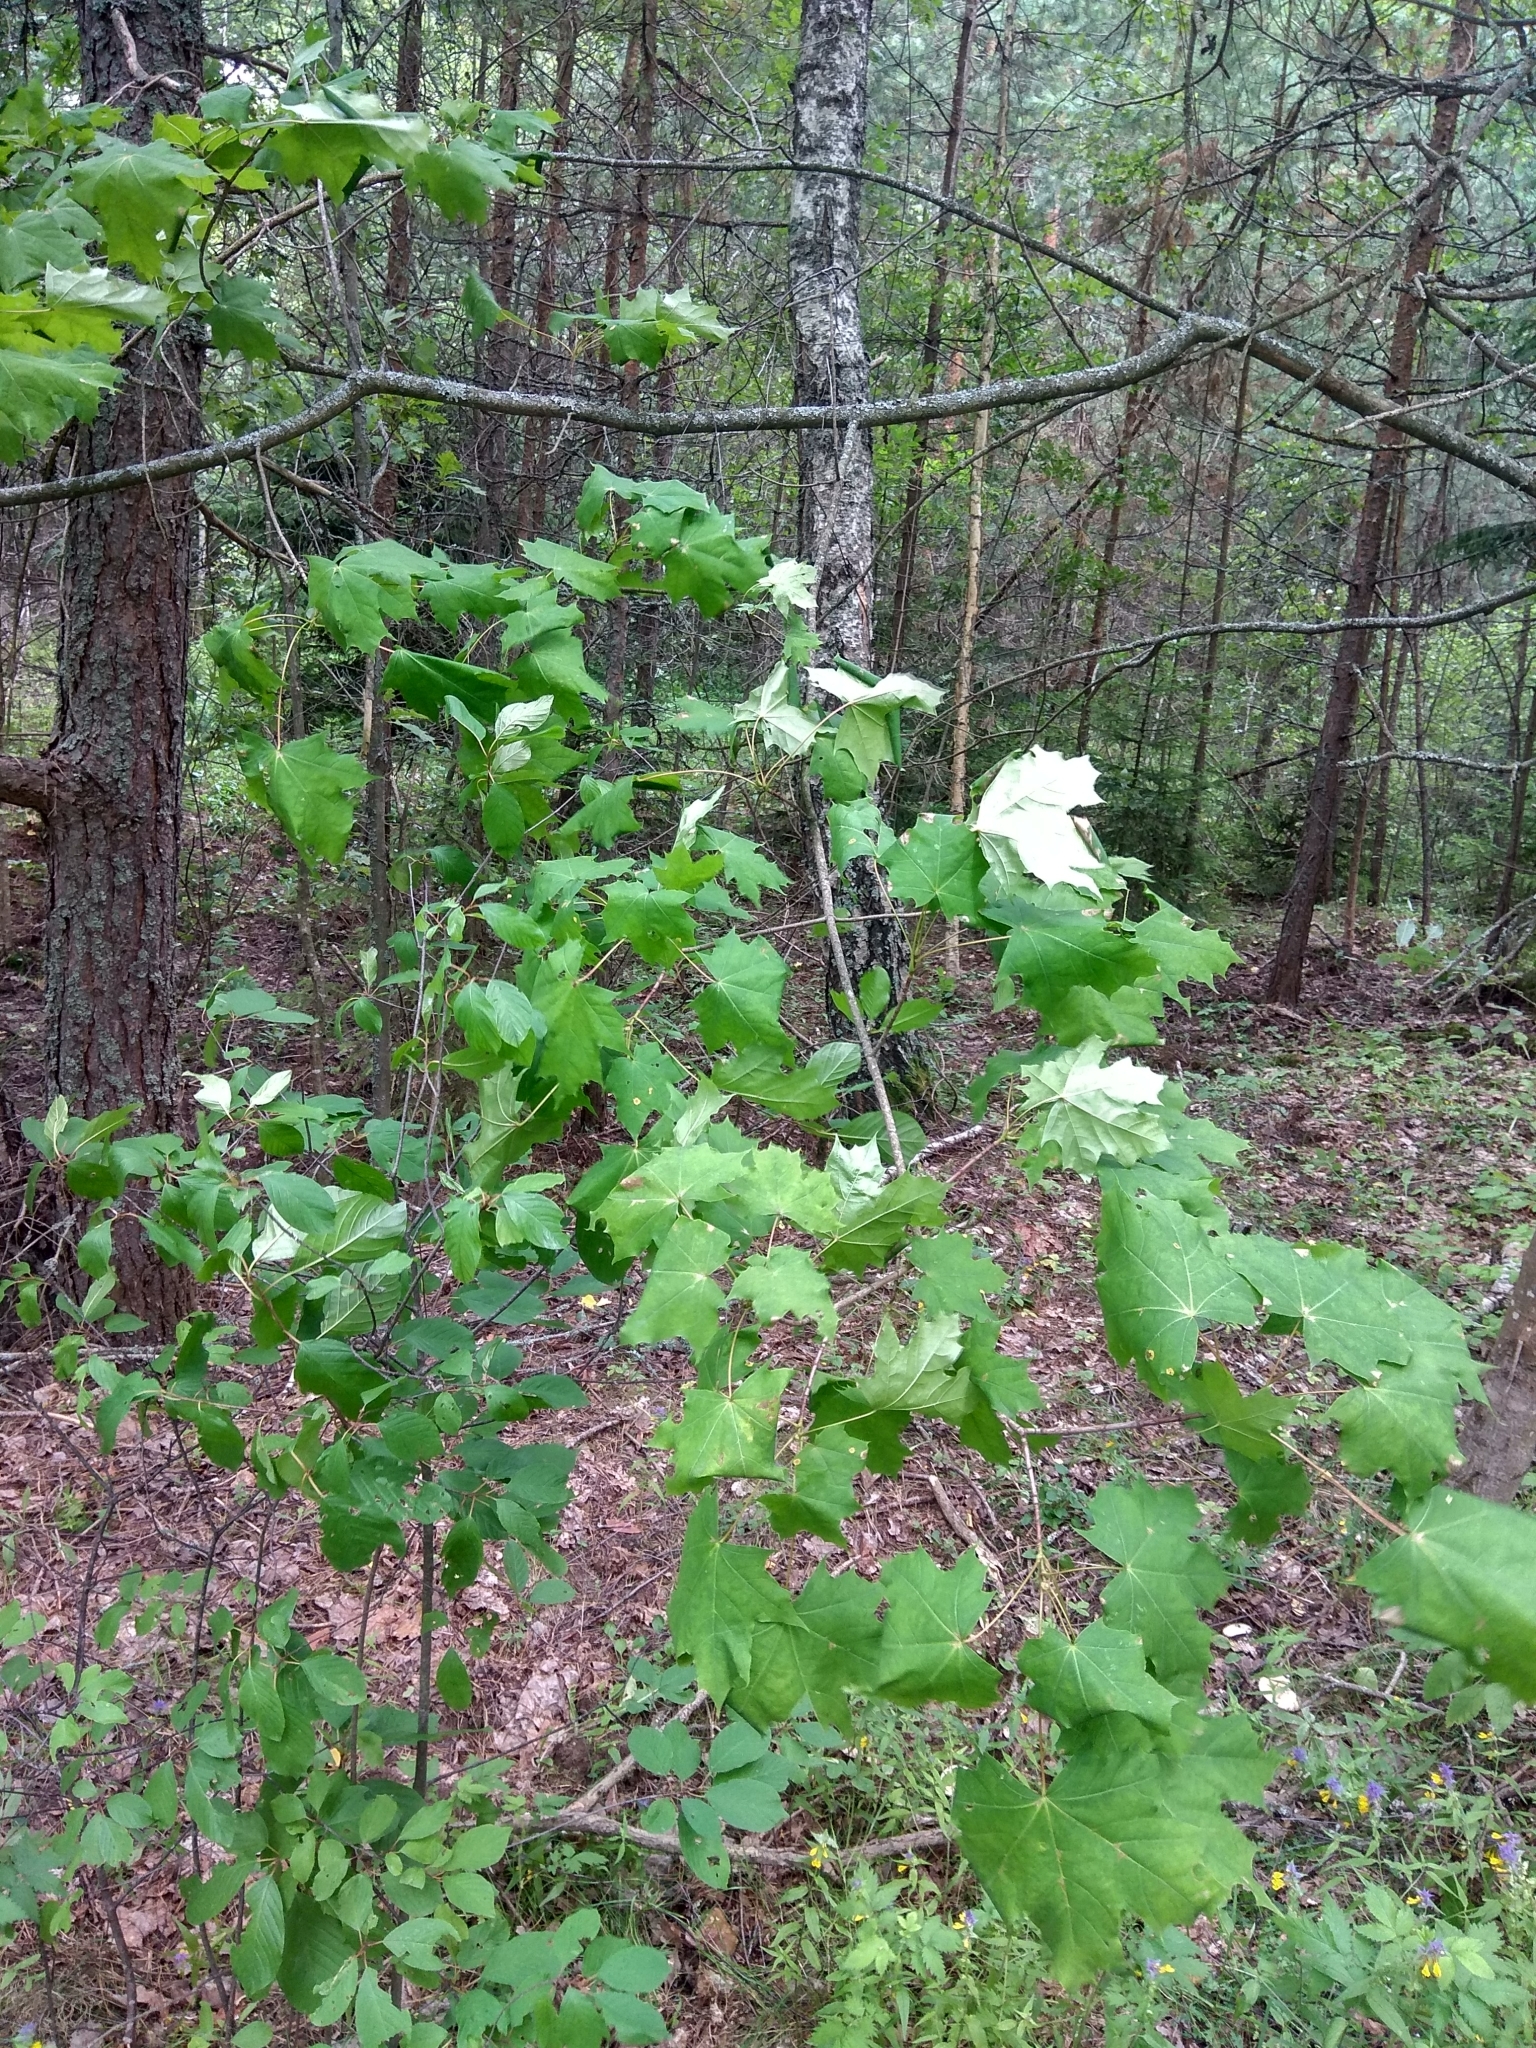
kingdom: Plantae
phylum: Tracheophyta
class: Magnoliopsida
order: Sapindales
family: Sapindaceae
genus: Acer
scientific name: Acer platanoides
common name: Norway maple
